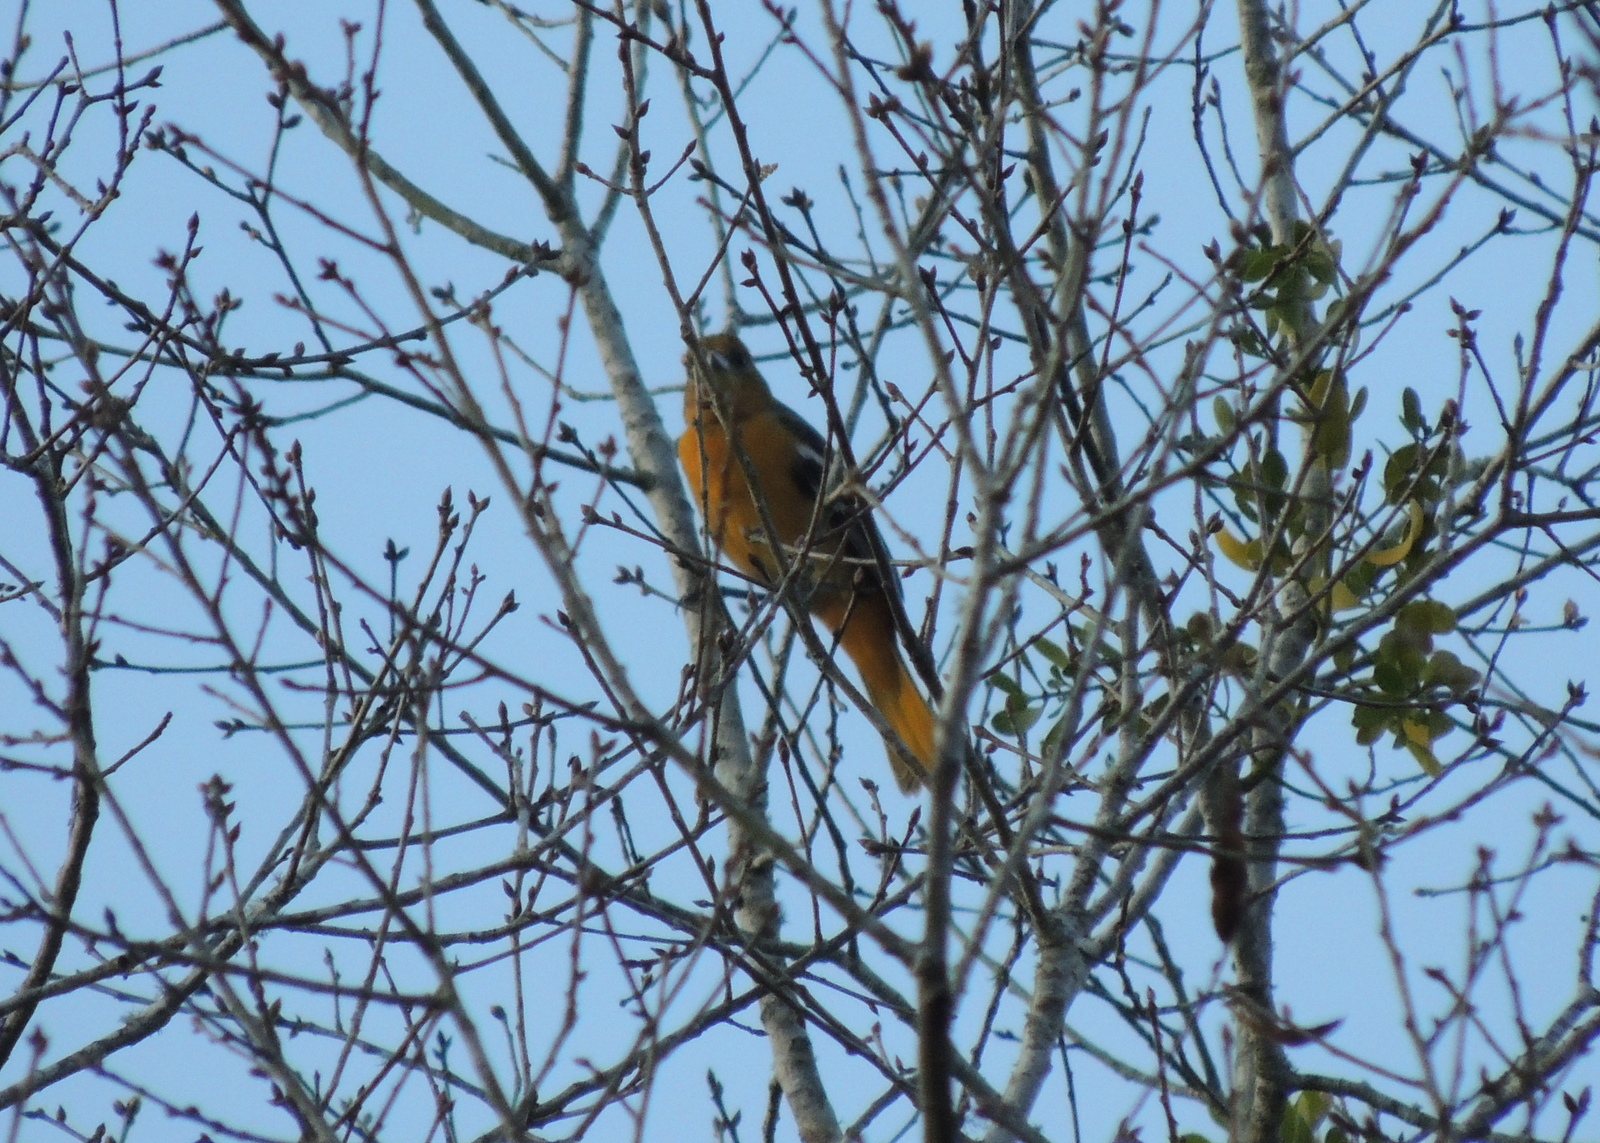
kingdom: Animalia
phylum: Chordata
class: Aves
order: Passeriformes
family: Icteridae
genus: Icterus
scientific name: Icterus galbula
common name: Baltimore oriole
